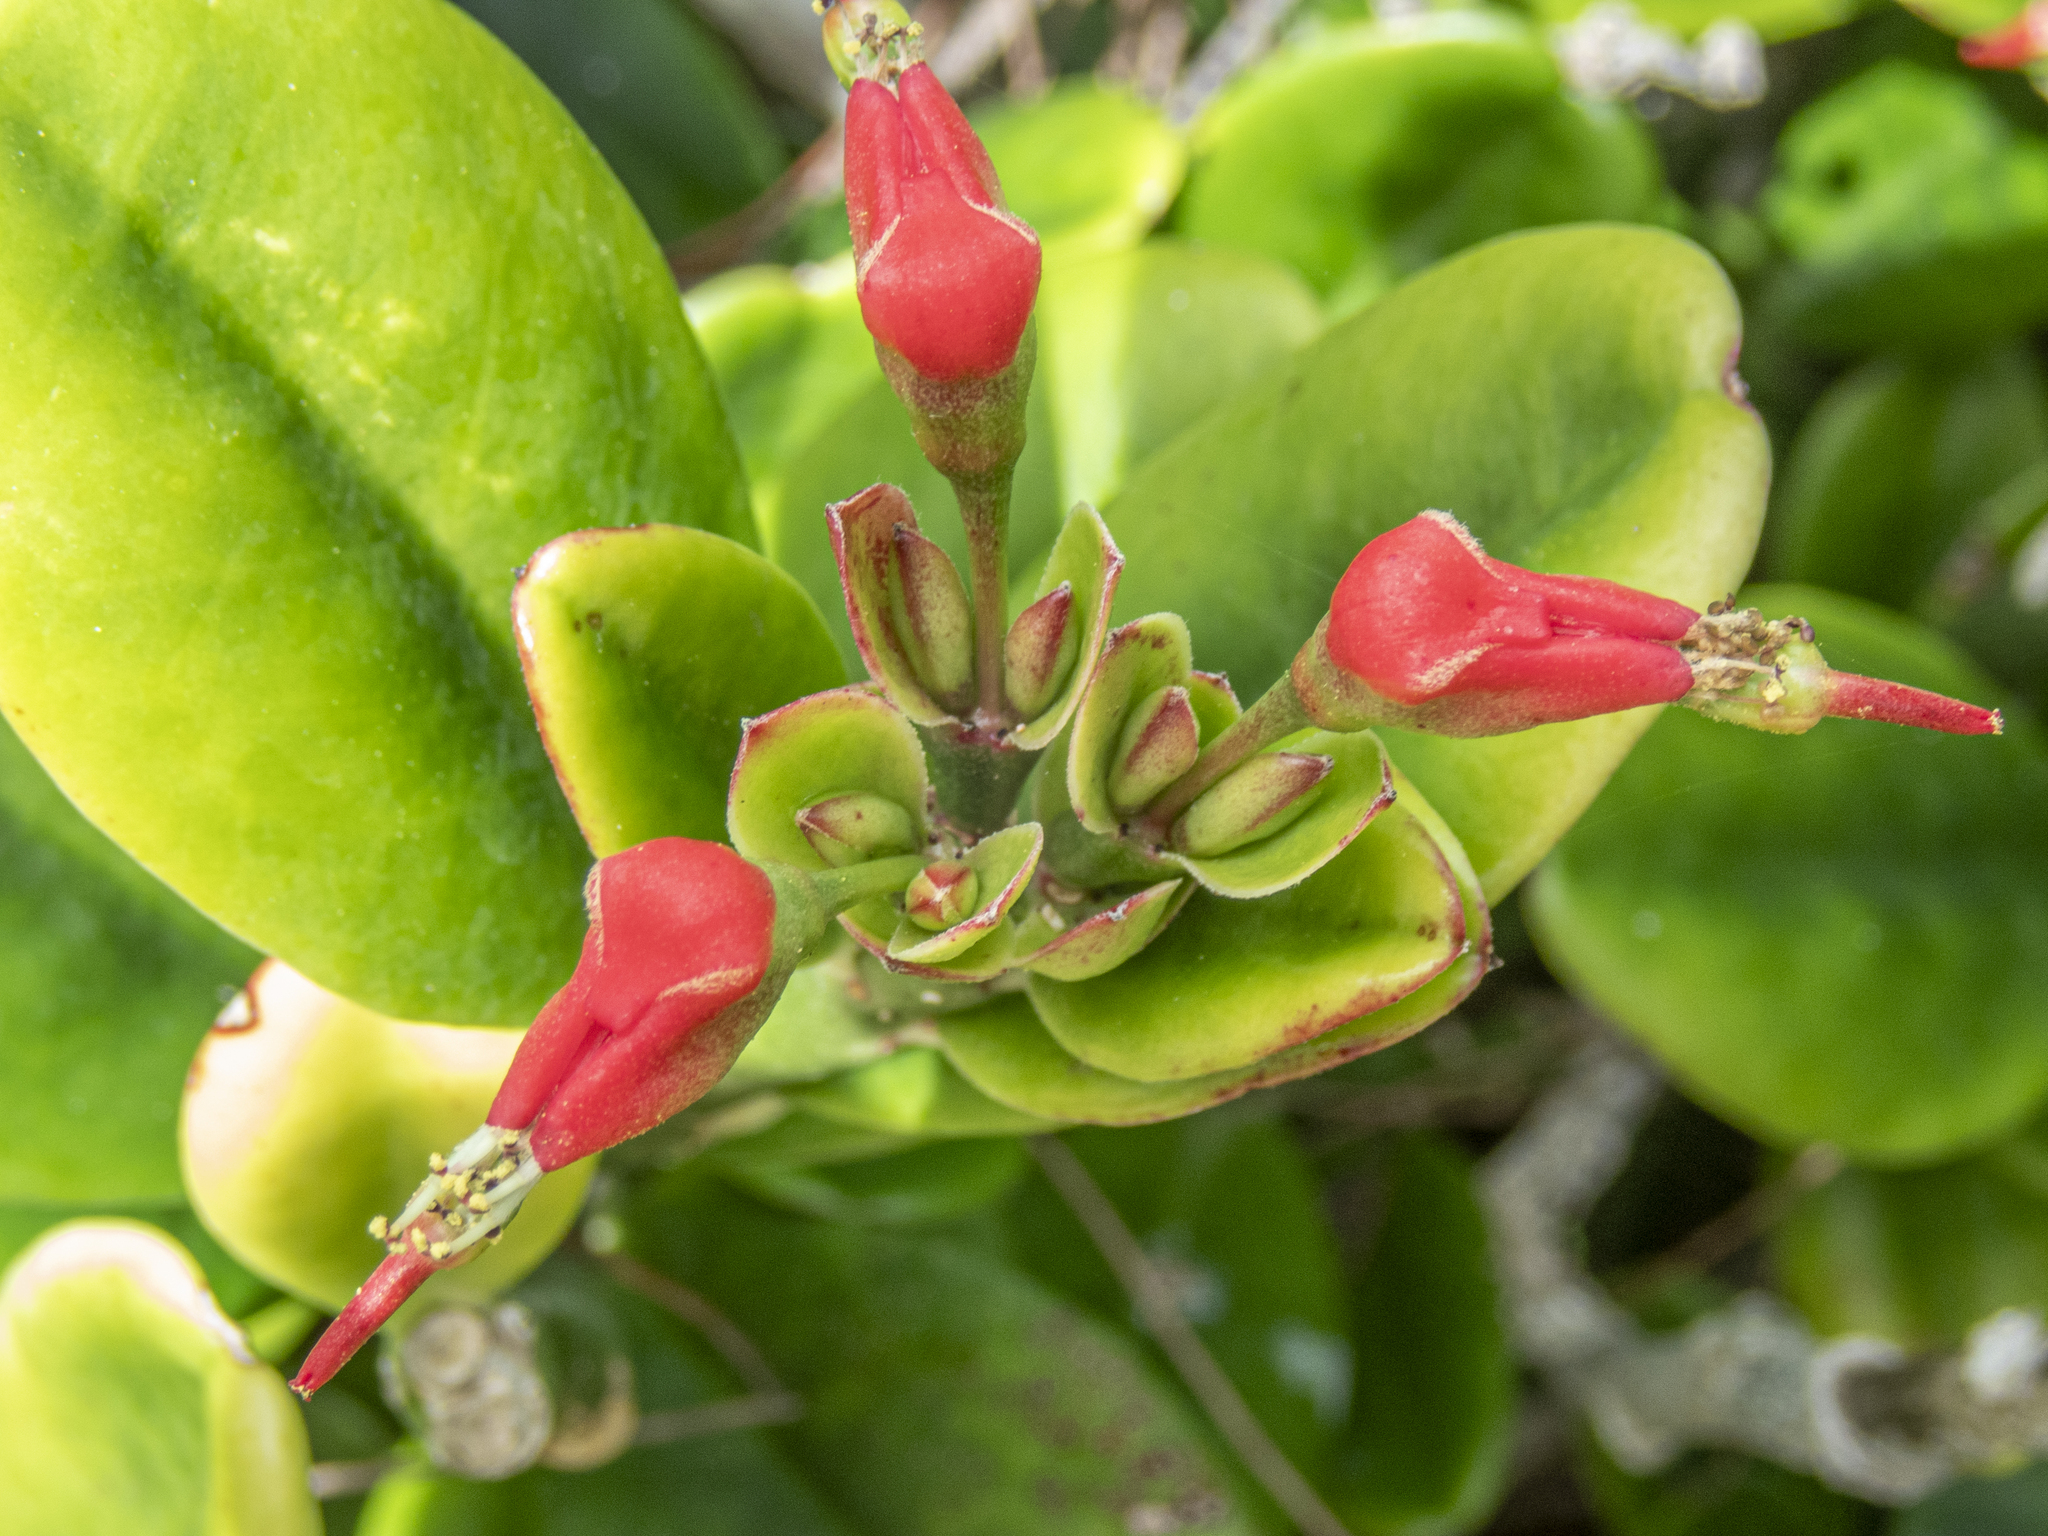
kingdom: Plantae
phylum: Tracheophyta
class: Magnoliopsida
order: Malpighiales
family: Euphorbiaceae
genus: Euphorbia
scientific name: Euphorbia tithymaloides
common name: Slipperplant
